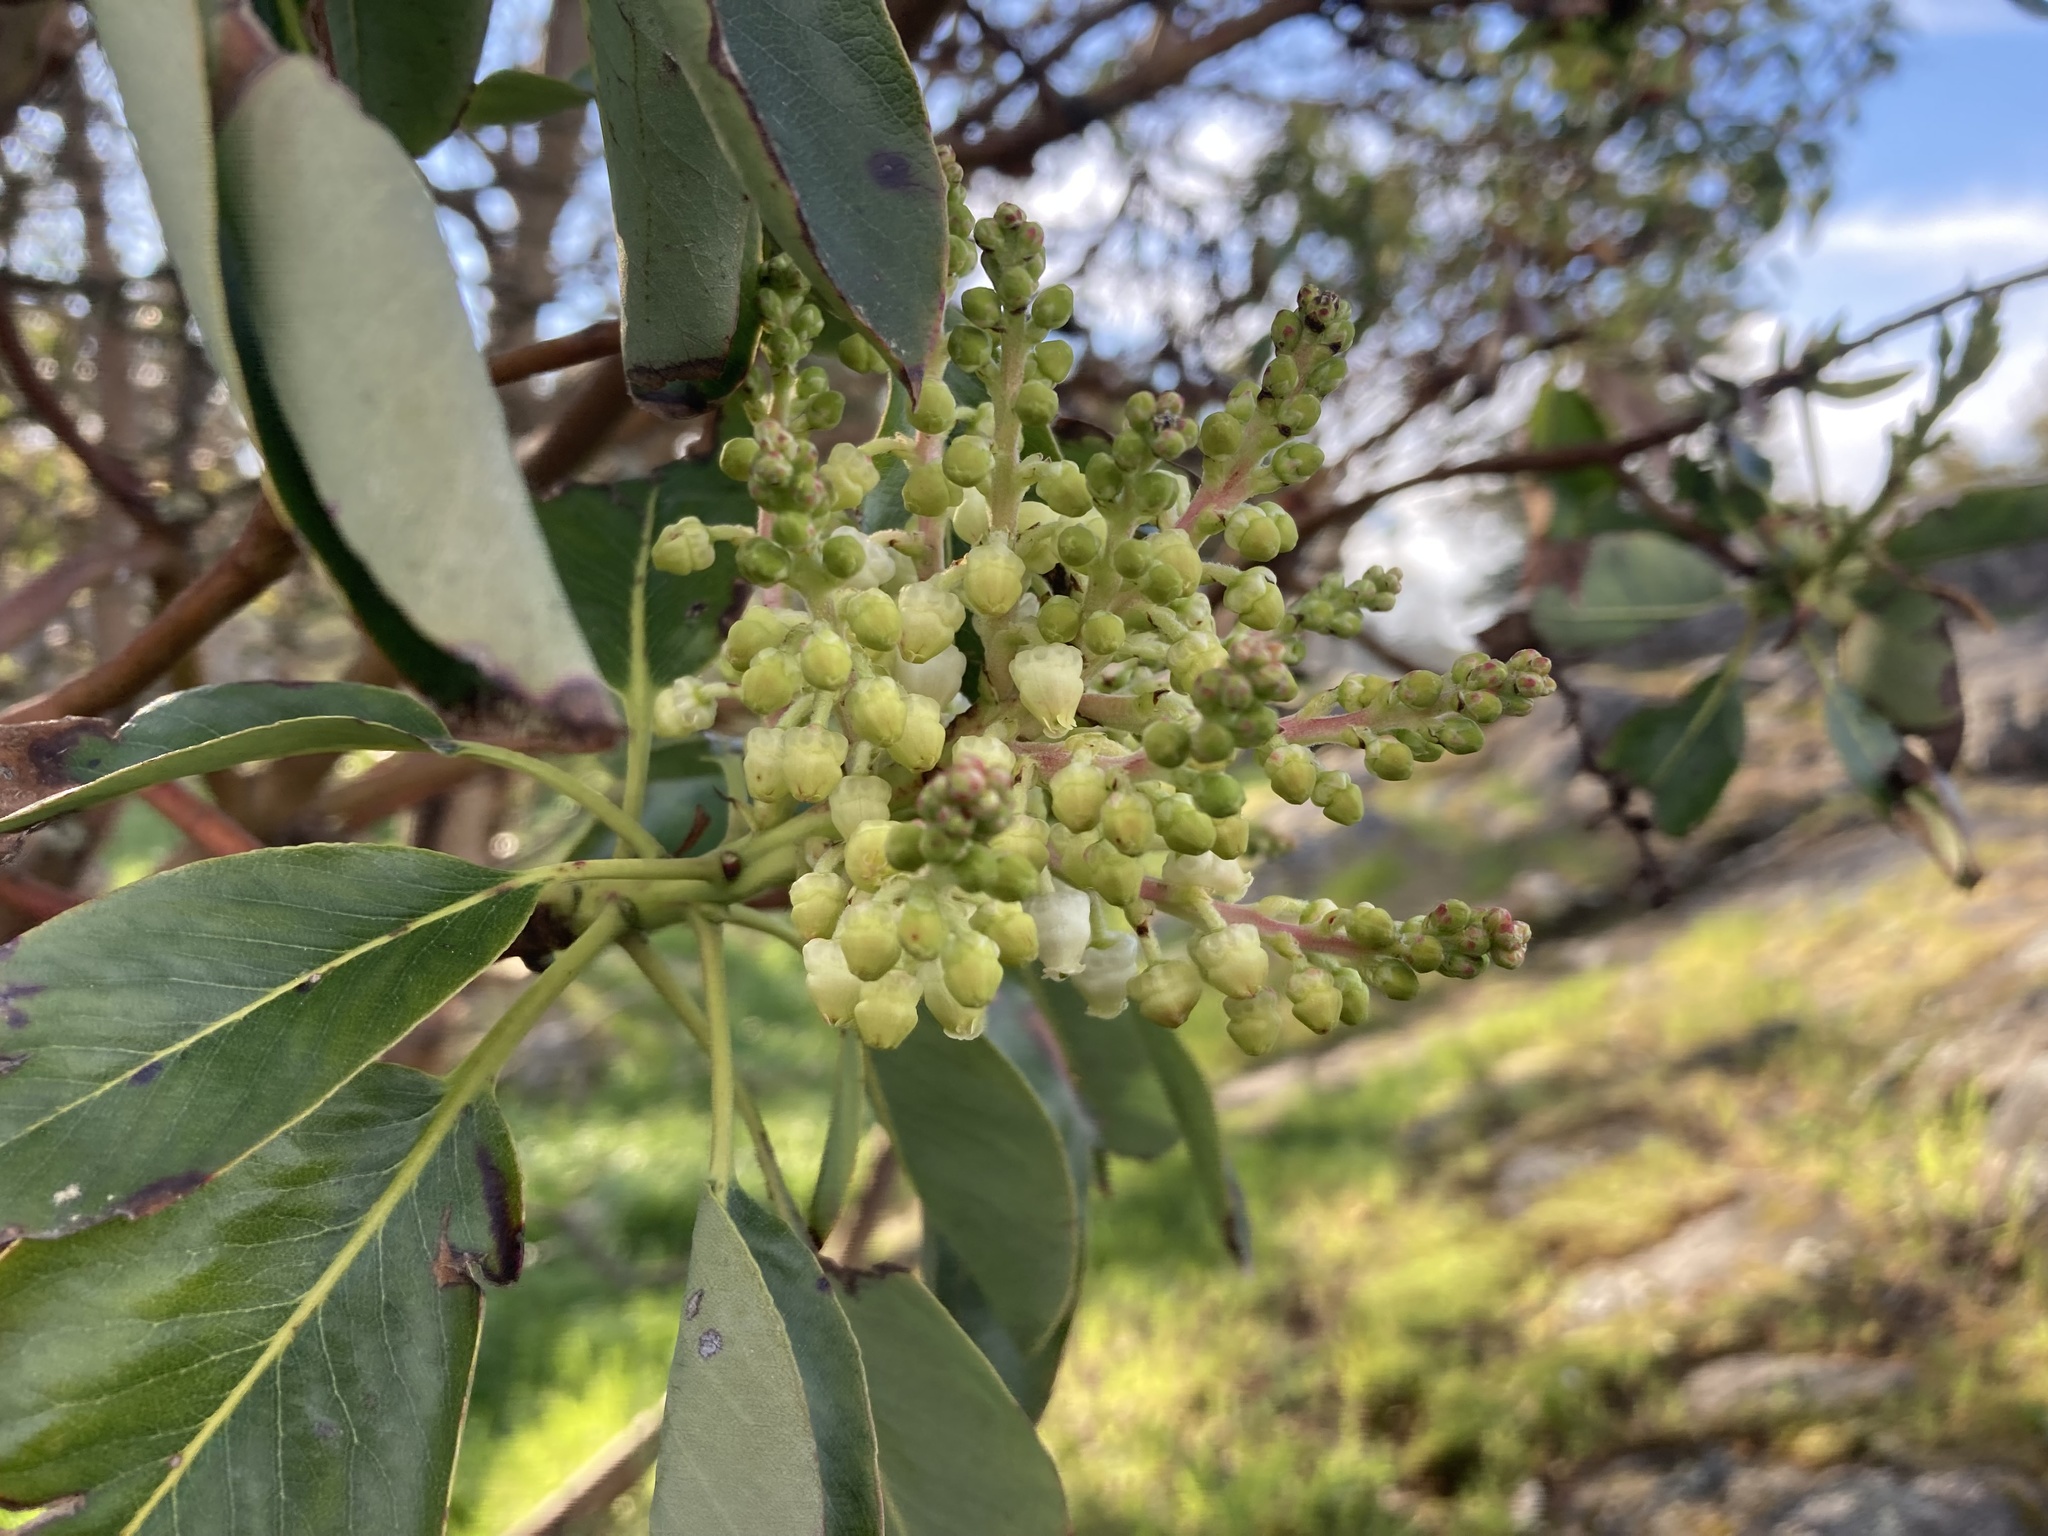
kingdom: Plantae
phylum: Tracheophyta
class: Magnoliopsida
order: Ericales
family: Ericaceae
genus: Arbutus
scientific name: Arbutus menziesii
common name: Pacific madrone
